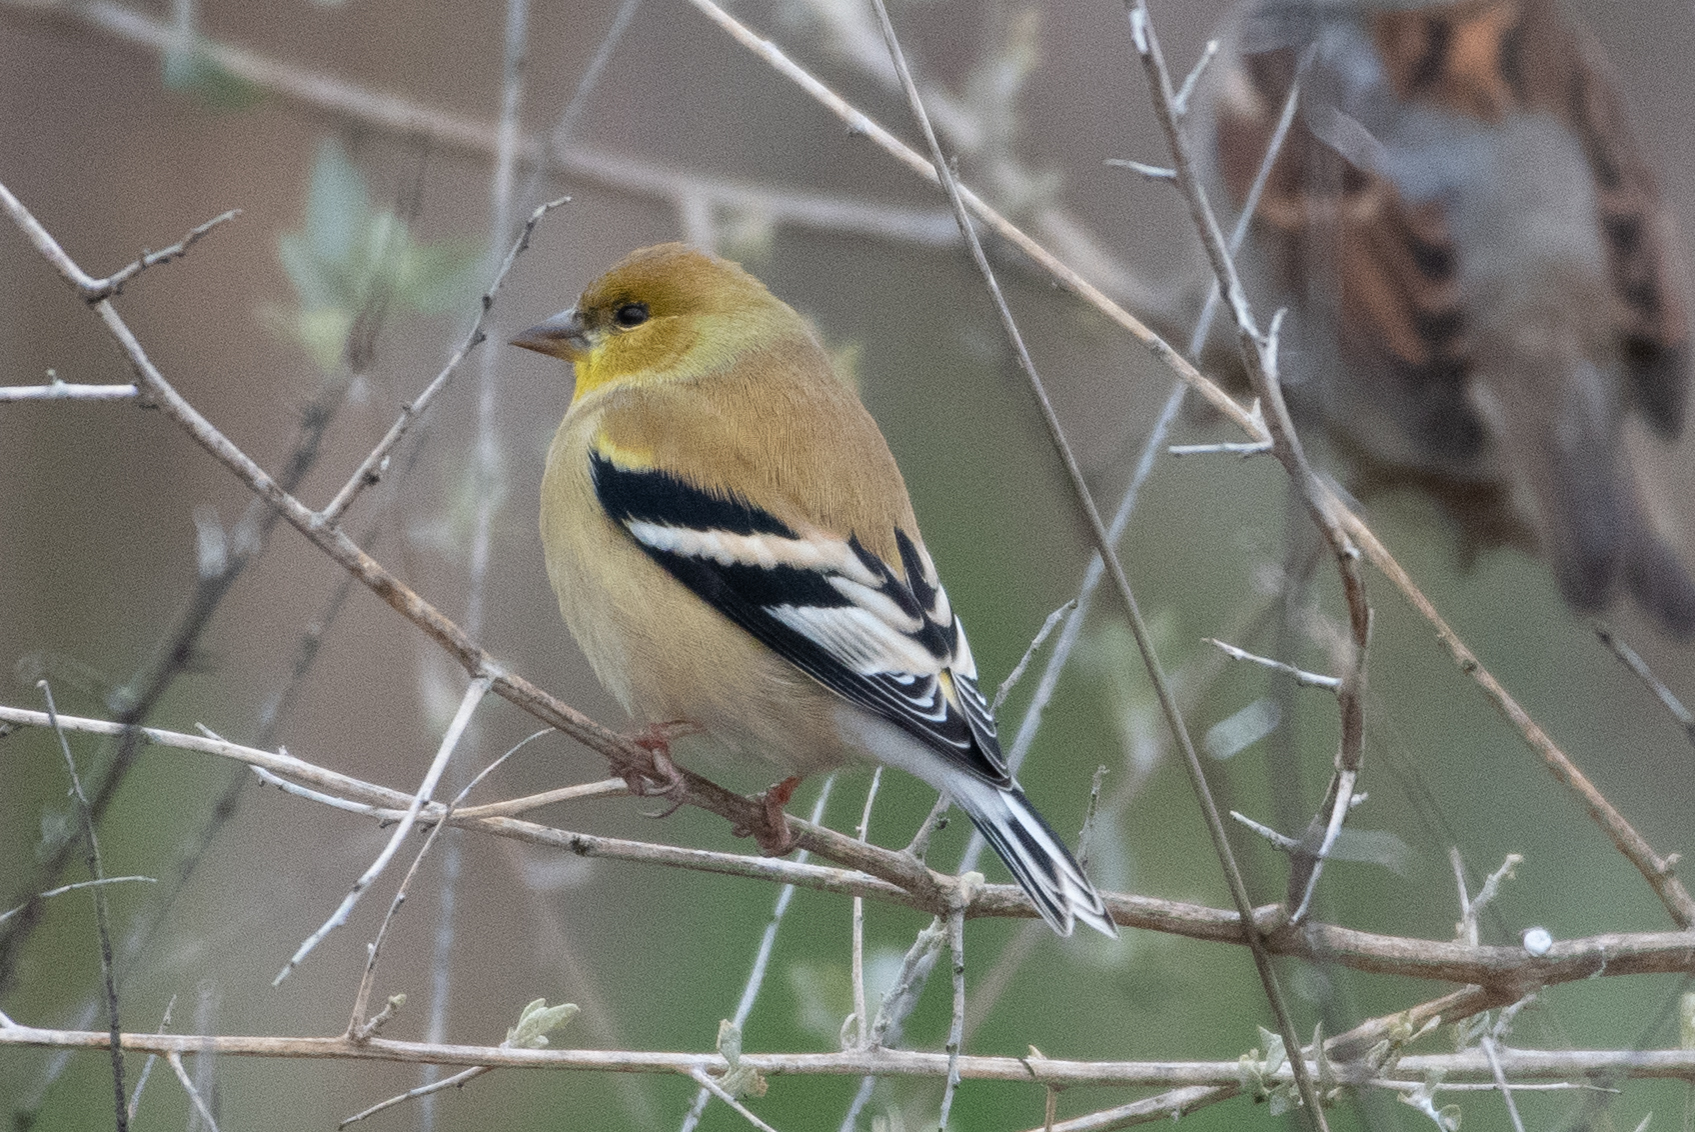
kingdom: Animalia
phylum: Chordata
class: Aves
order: Passeriformes
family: Fringillidae
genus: Spinus
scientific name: Spinus tristis
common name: American goldfinch
